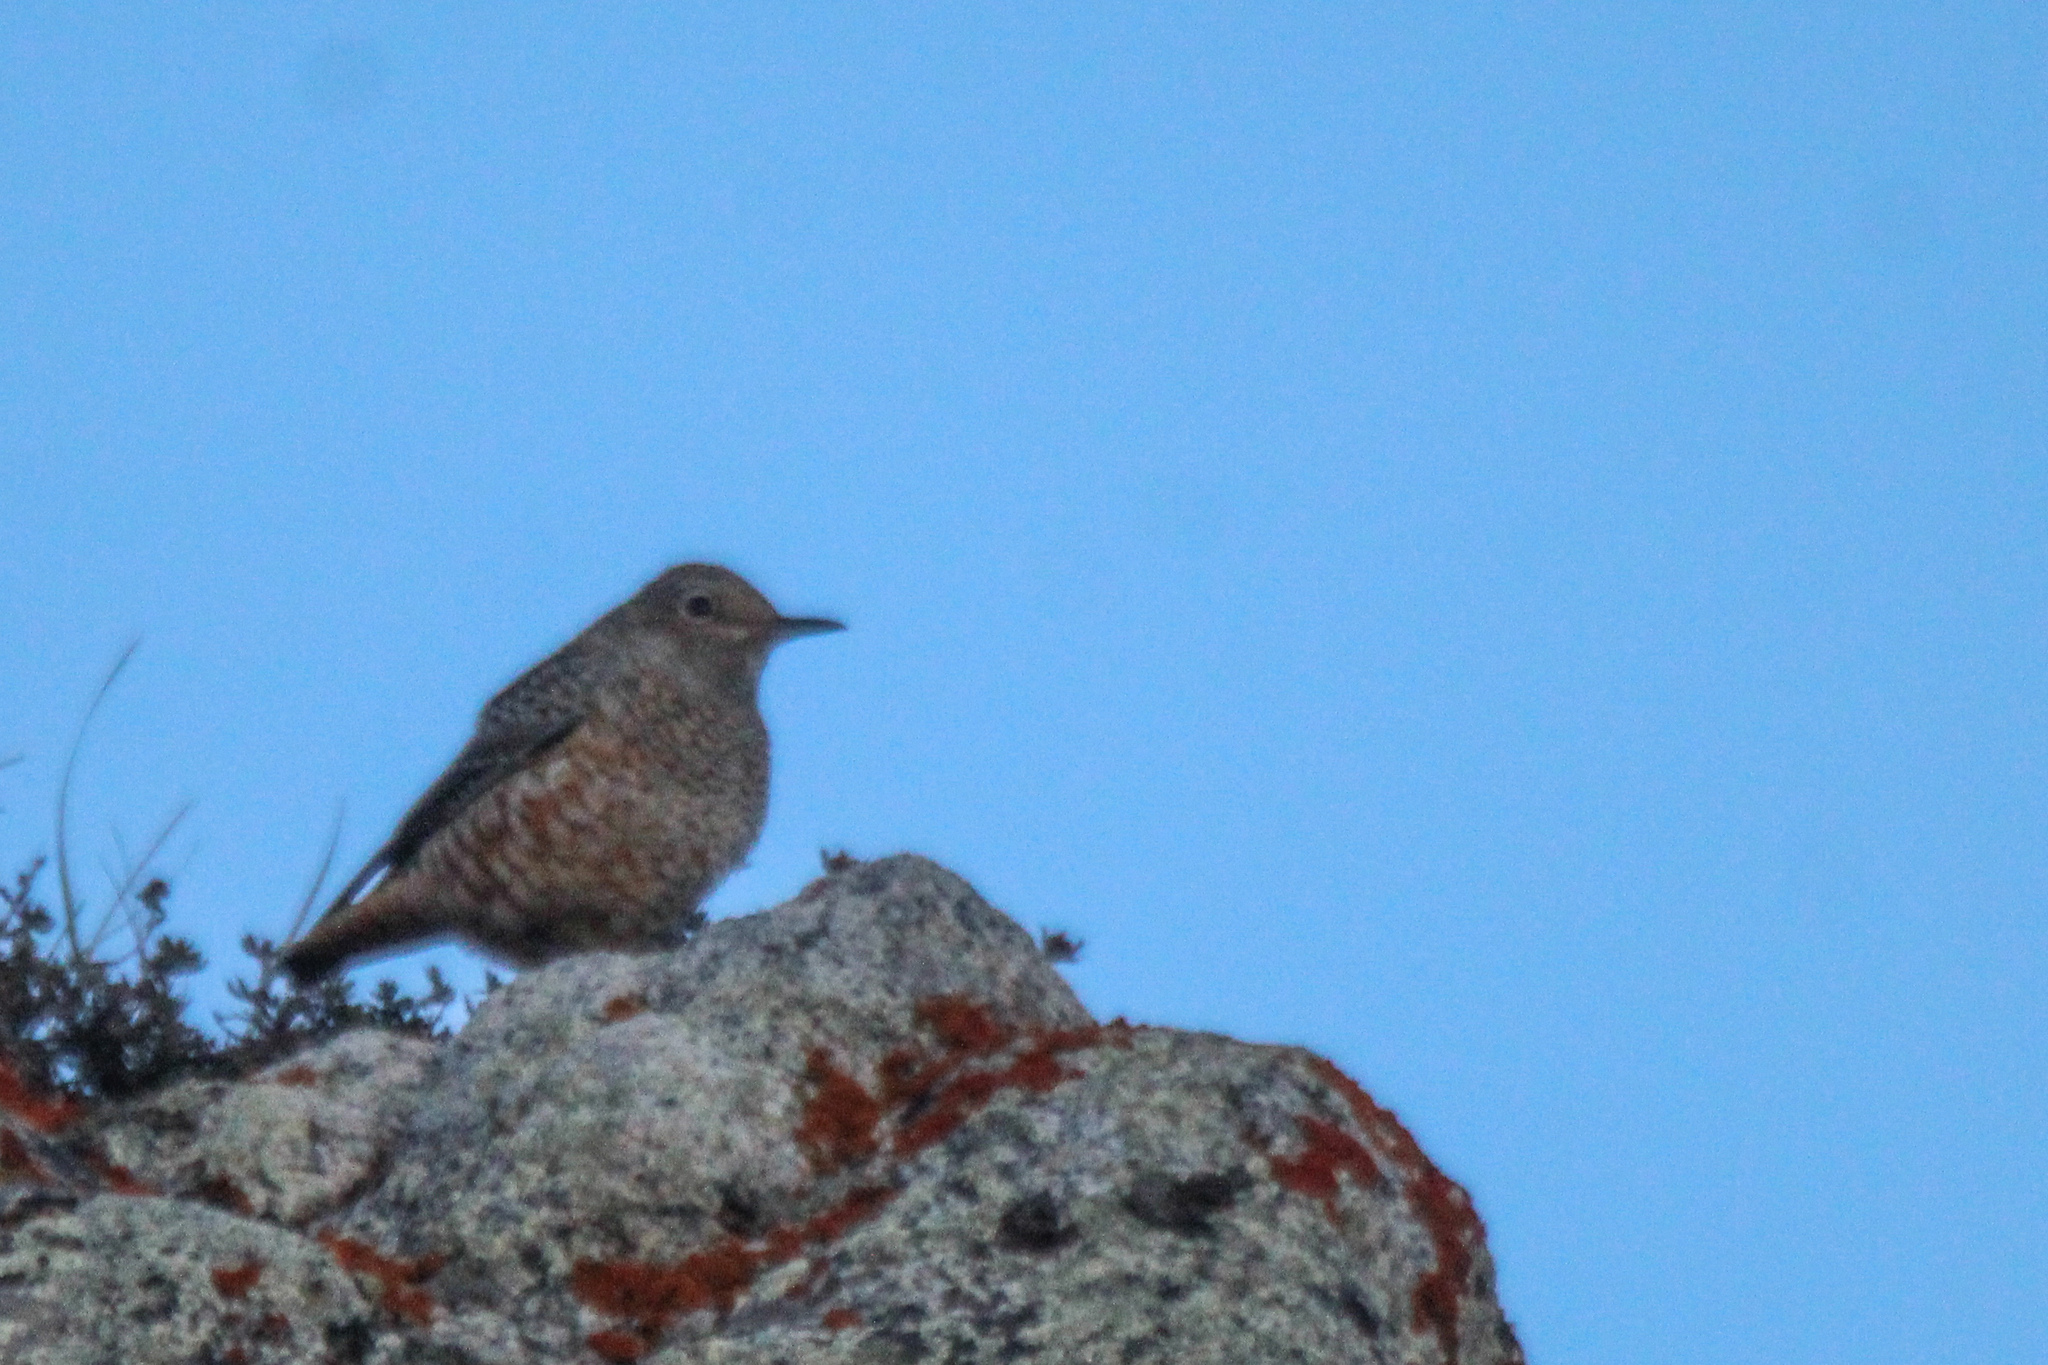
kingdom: Animalia
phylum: Chordata
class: Aves
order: Passeriformes
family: Muscicapidae
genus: Monticola
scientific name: Monticola saxatilis
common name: Rufous-tailed rock thrush
